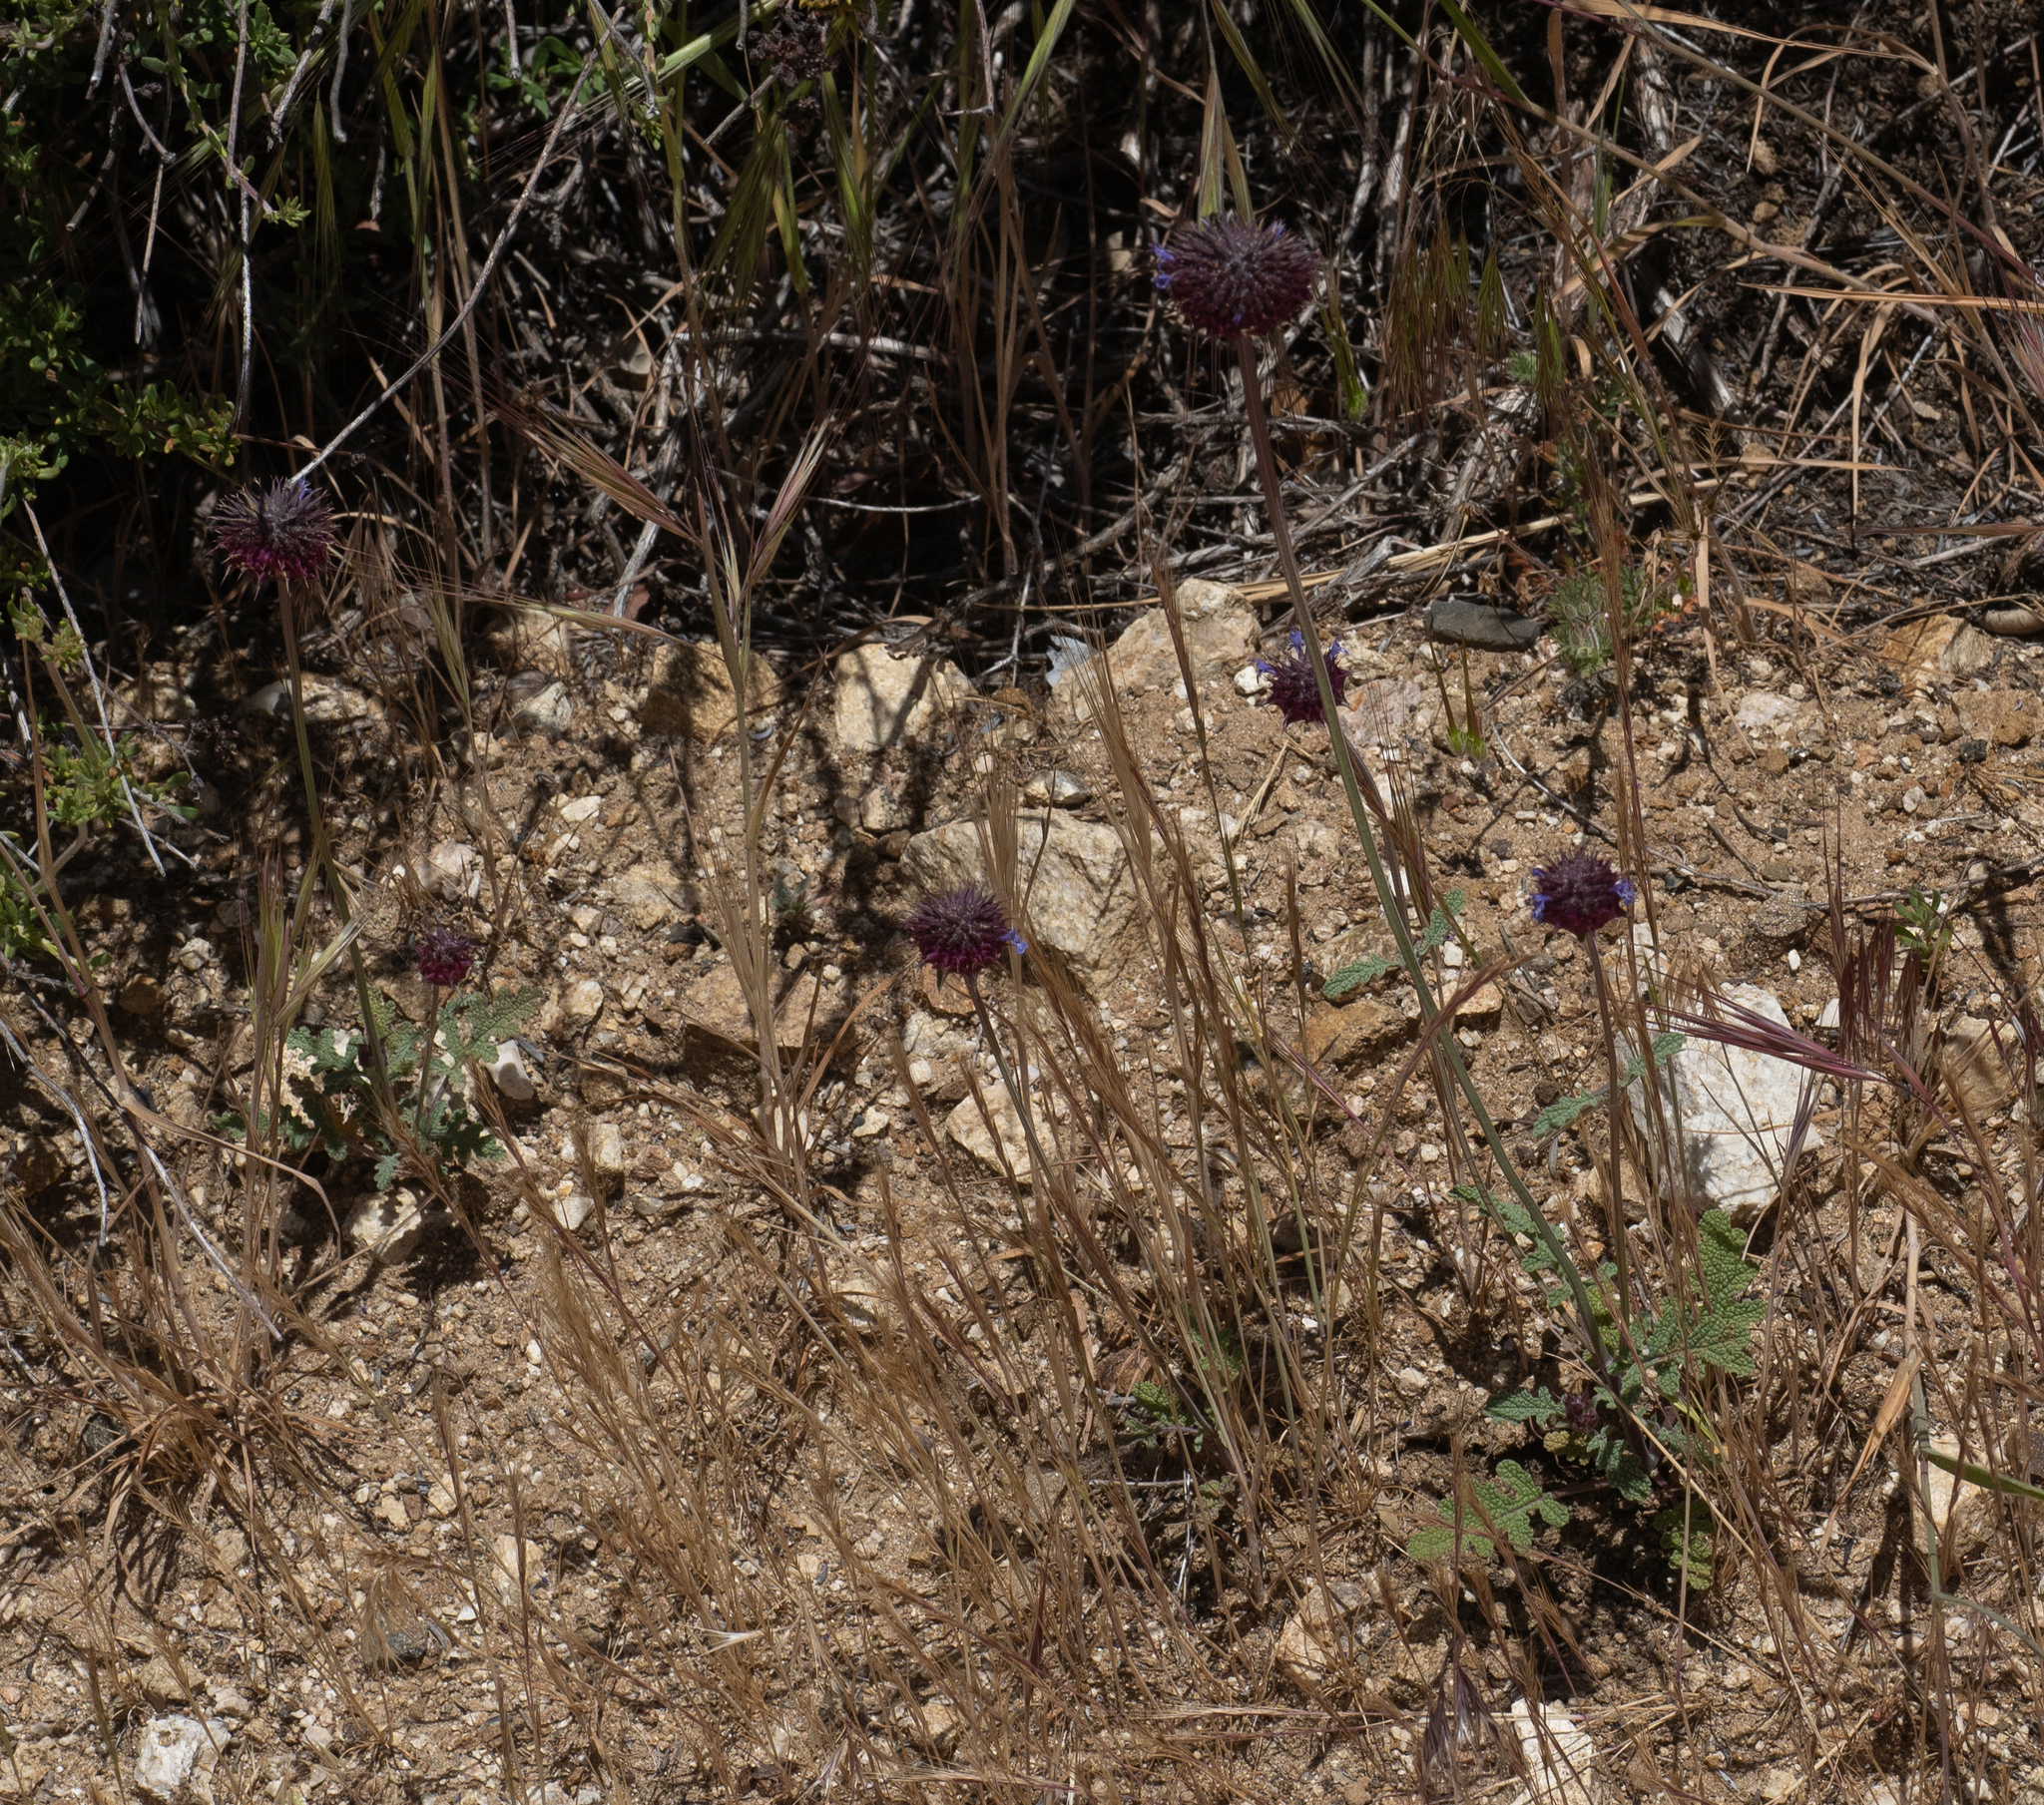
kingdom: Plantae
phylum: Tracheophyta
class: Magnoliopsida
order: Lamiales
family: Lamiaceae
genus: Salvia
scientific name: Salvia columbariae
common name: Chia
